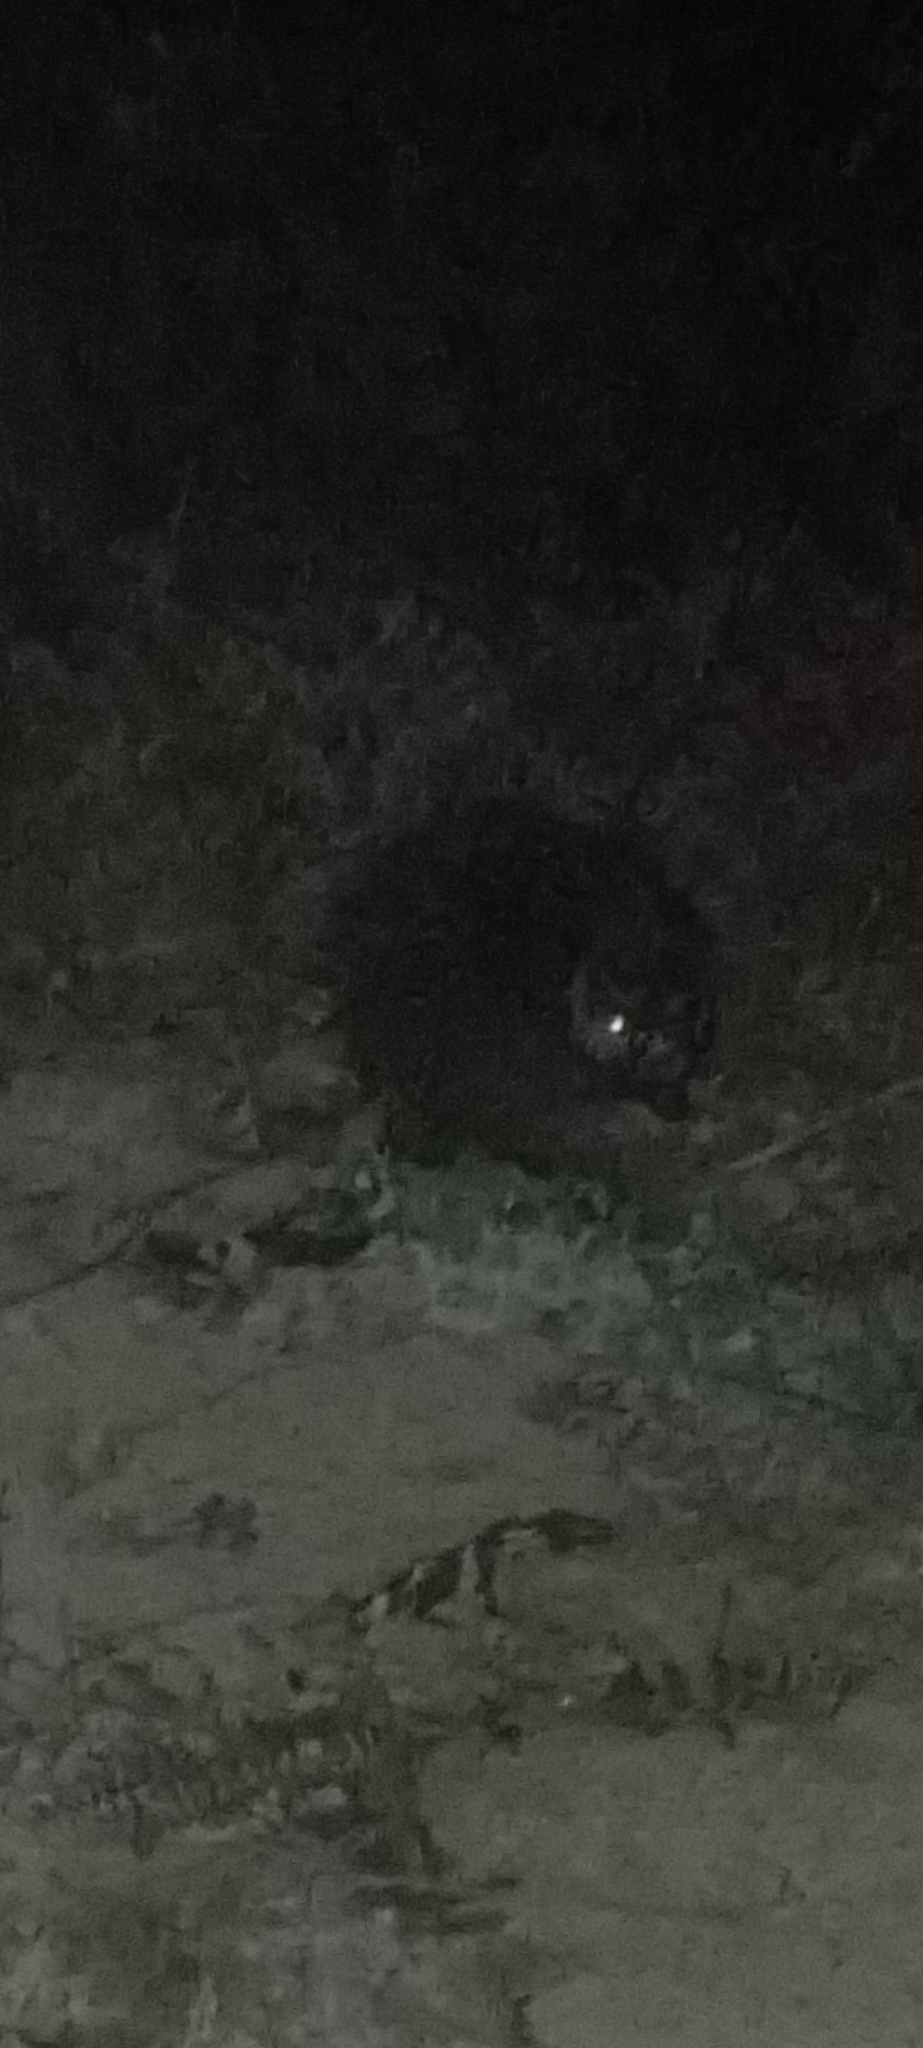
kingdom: Animalia
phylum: Chordata
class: Mammalia
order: Rodentia
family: Erethizontidae
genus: Echinoprocta
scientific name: Echinoprocta rufescens
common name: Stump-tailed porcupine
